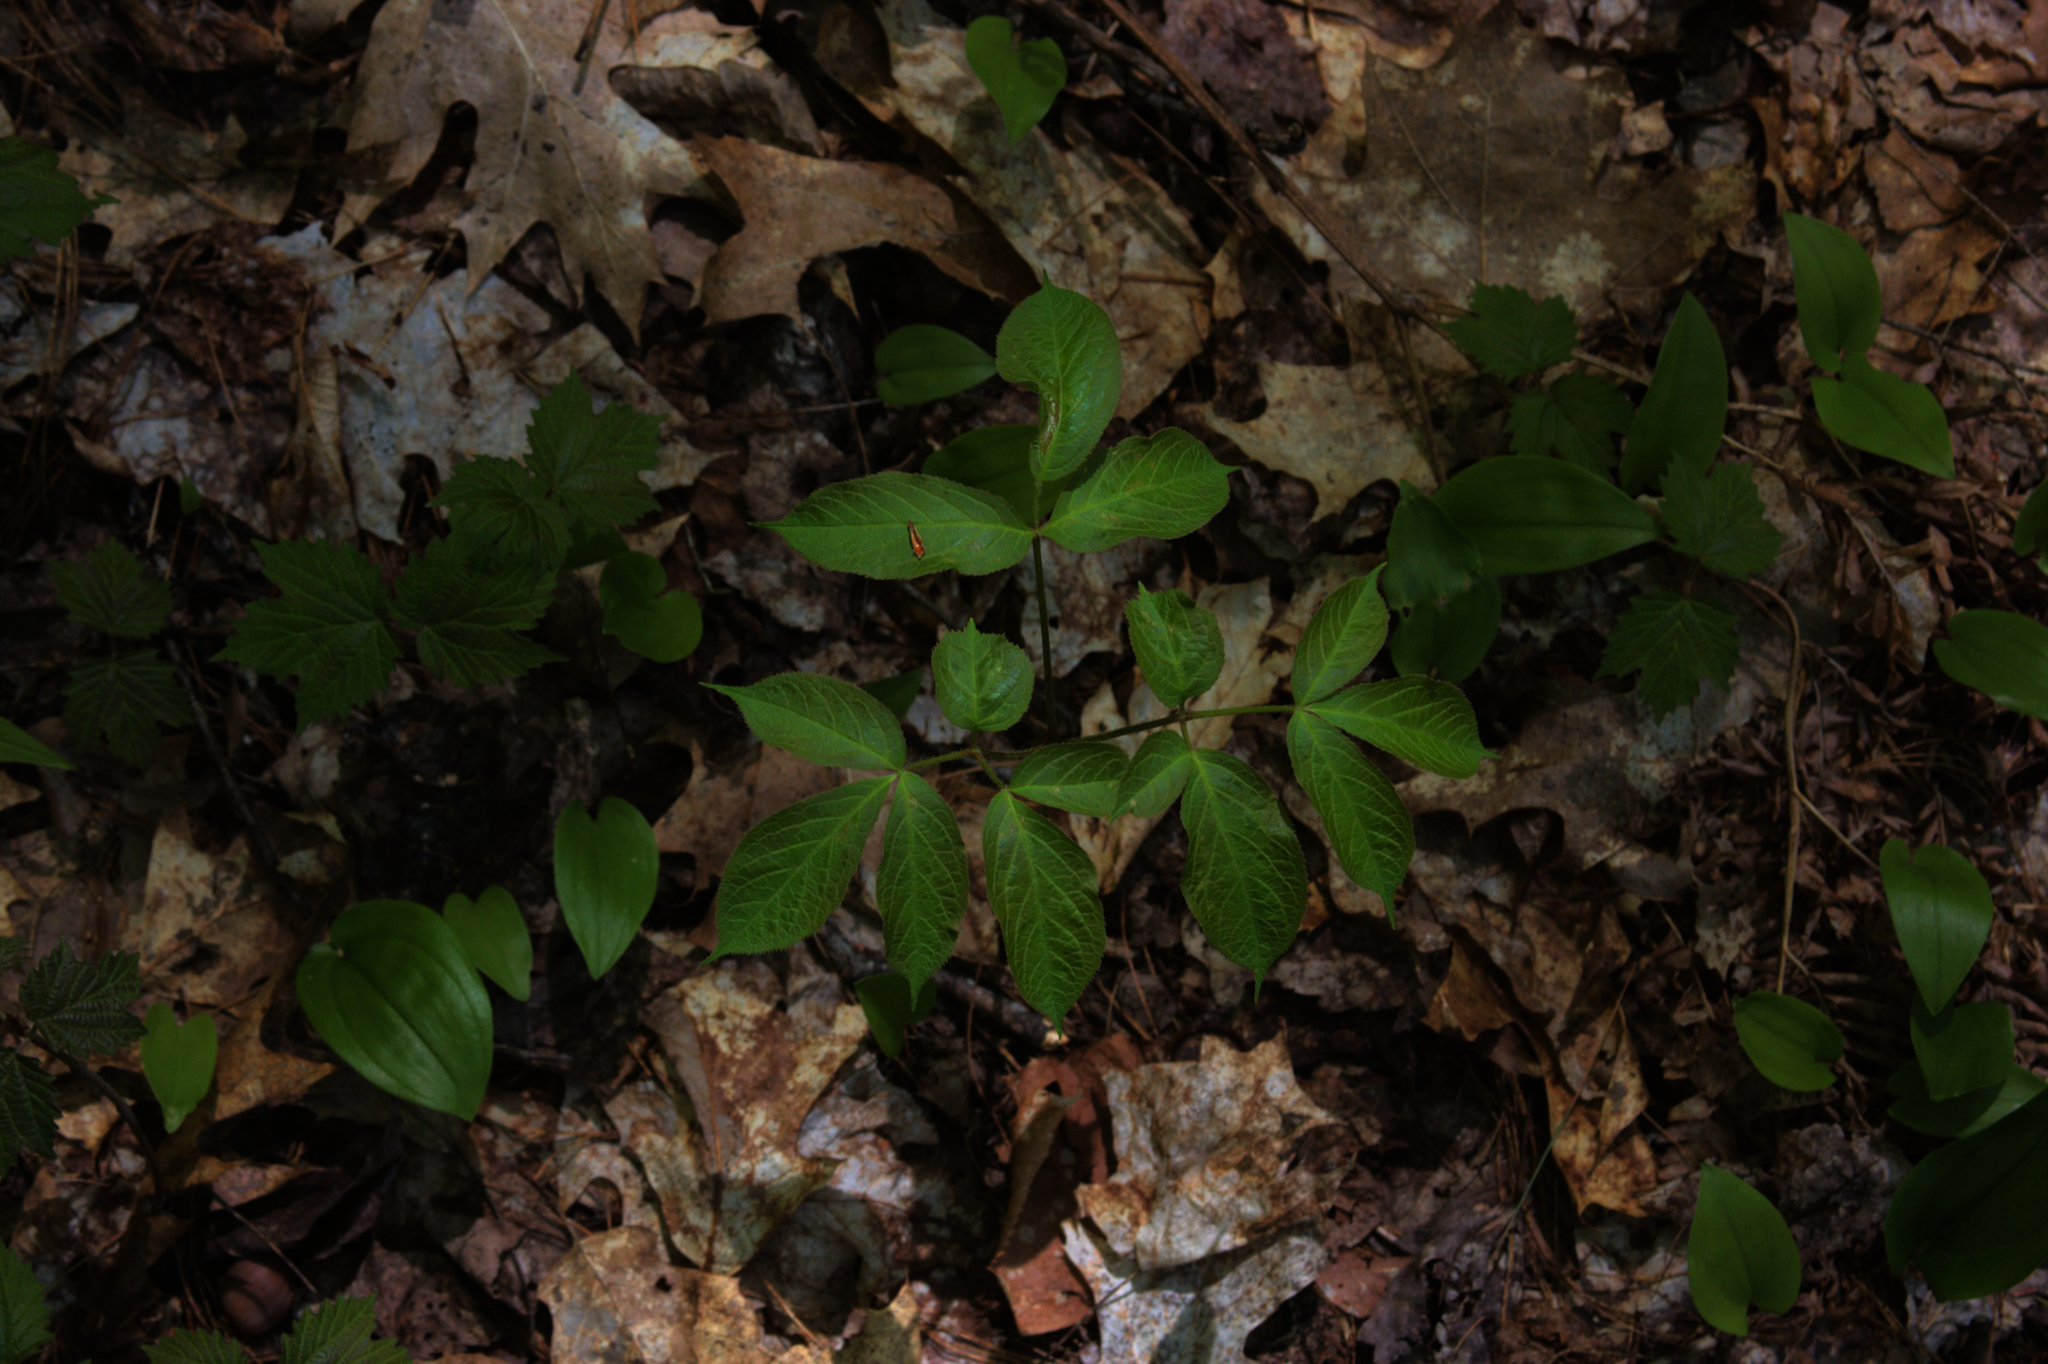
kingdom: Plantae
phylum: Tracheophyta
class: Magnoliopsida
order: Apiales
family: Araliaceae
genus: Aralia
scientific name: Aralia nudicaulis
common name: Wild sarsaparilla
